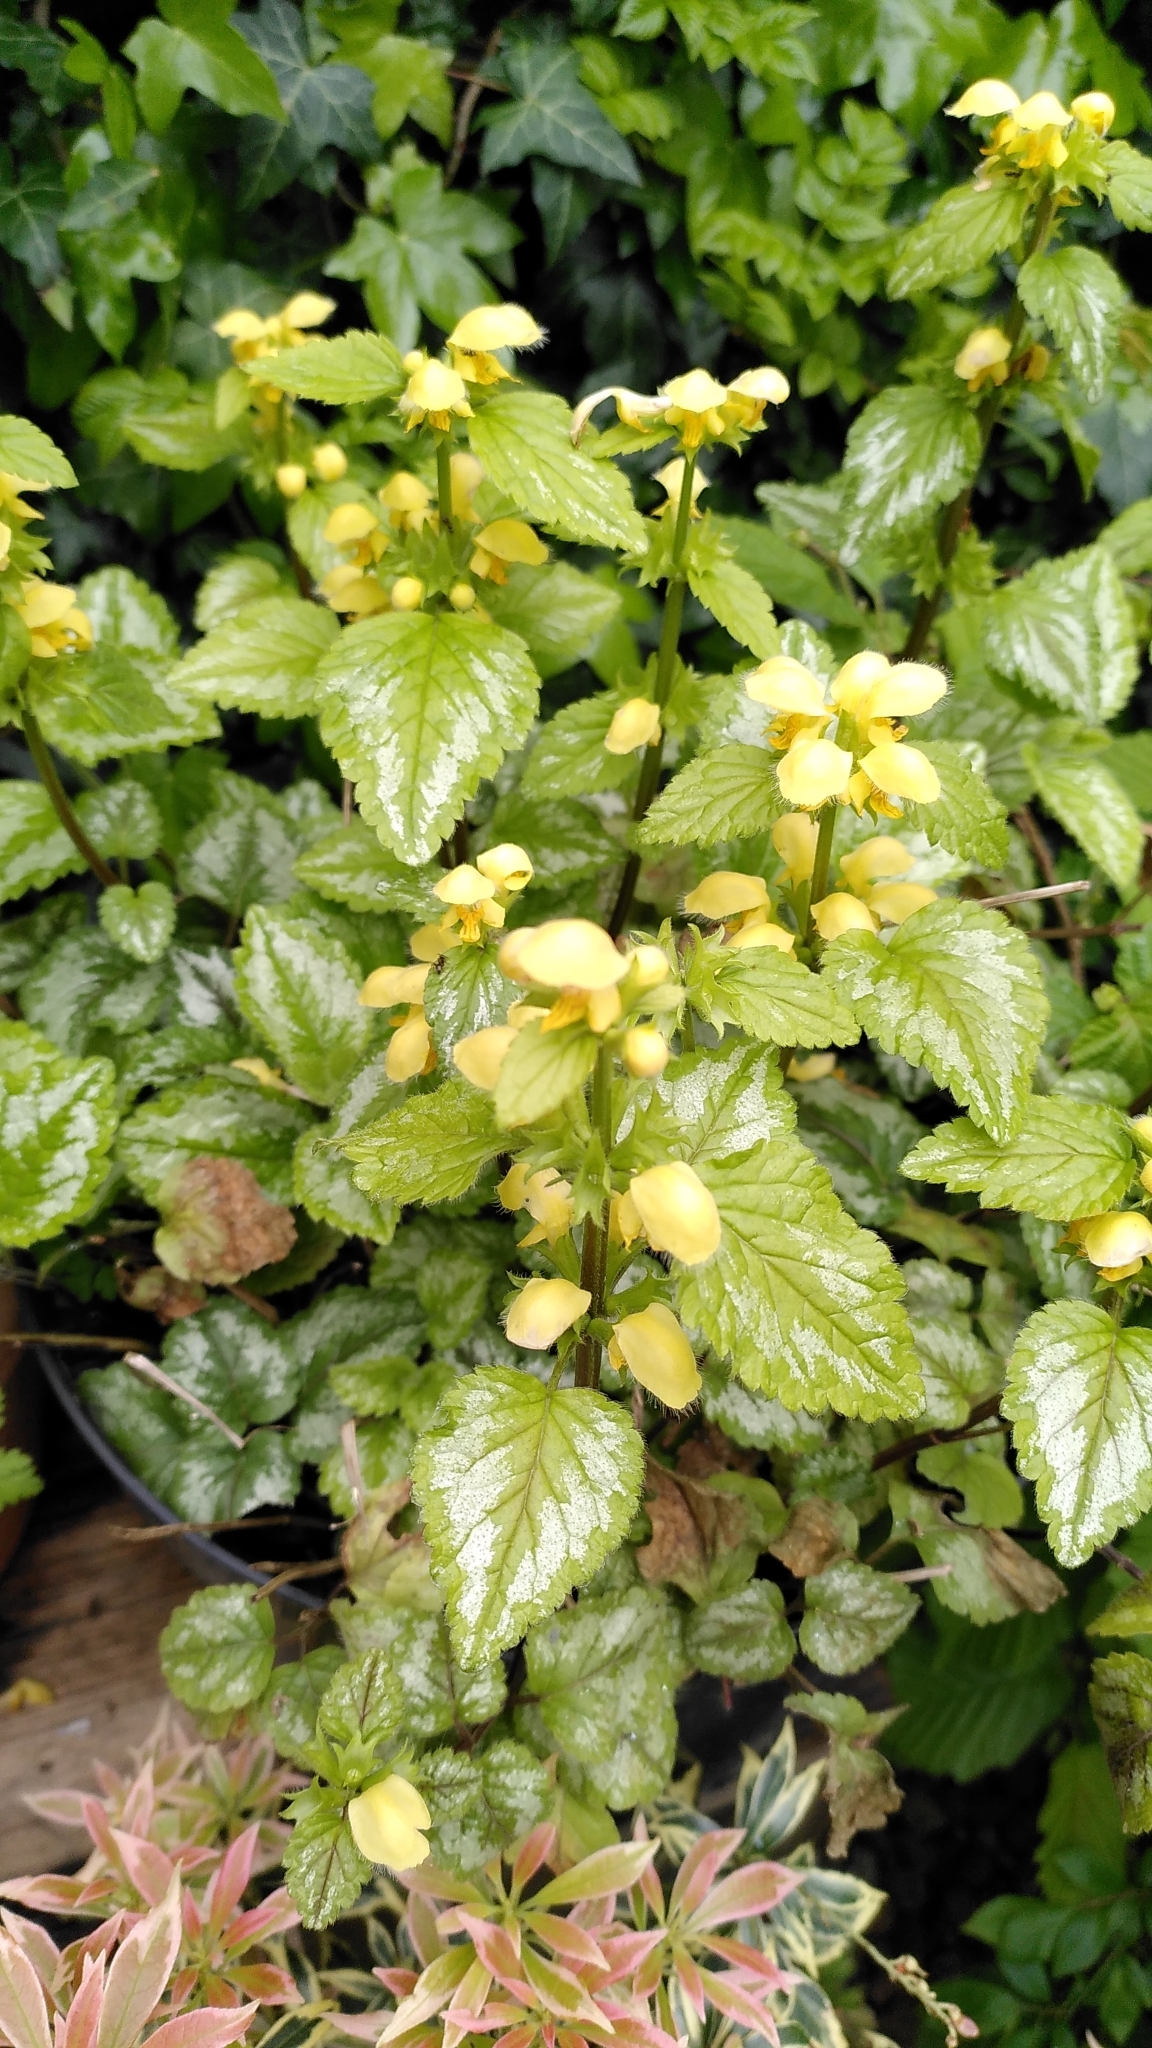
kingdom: Plantae
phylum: Tracheophyta
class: Magnoliopsida
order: Lamiales
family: Lamiaceae
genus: Lamium
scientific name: Lamium galeobdolon
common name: Yellow archangel
